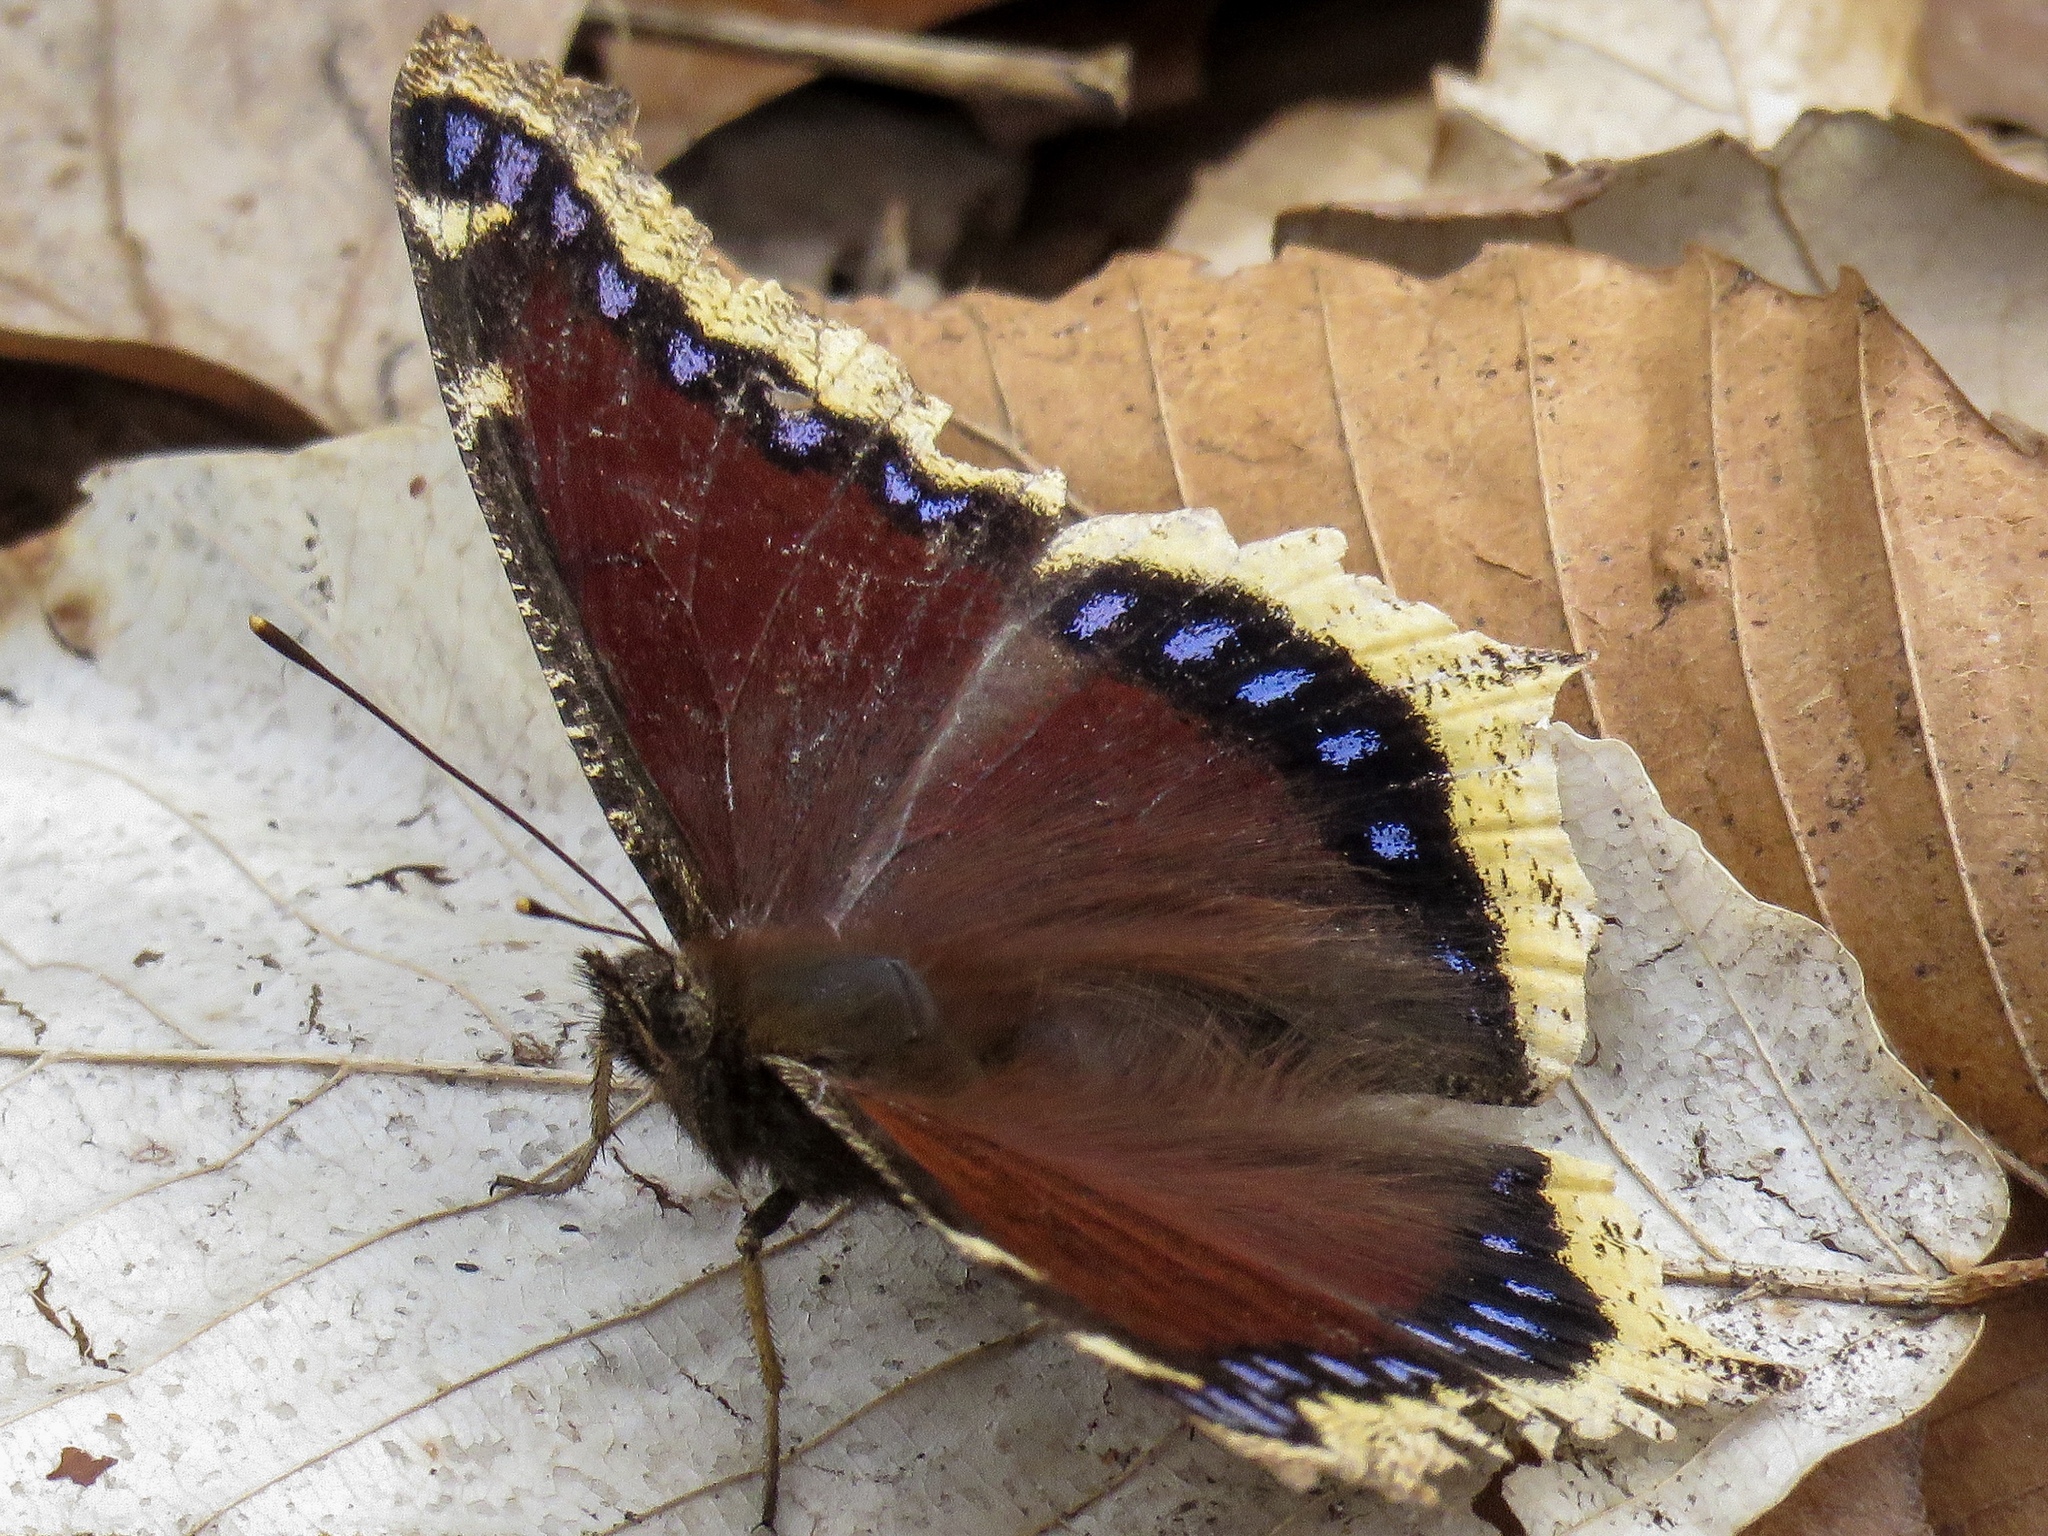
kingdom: Animalia
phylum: Arthropoda
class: Insecta
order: Lepidoptera
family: Nymphalidae
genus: Nymphalis
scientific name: Nymphalis antiopa
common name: Camberwell beauty
